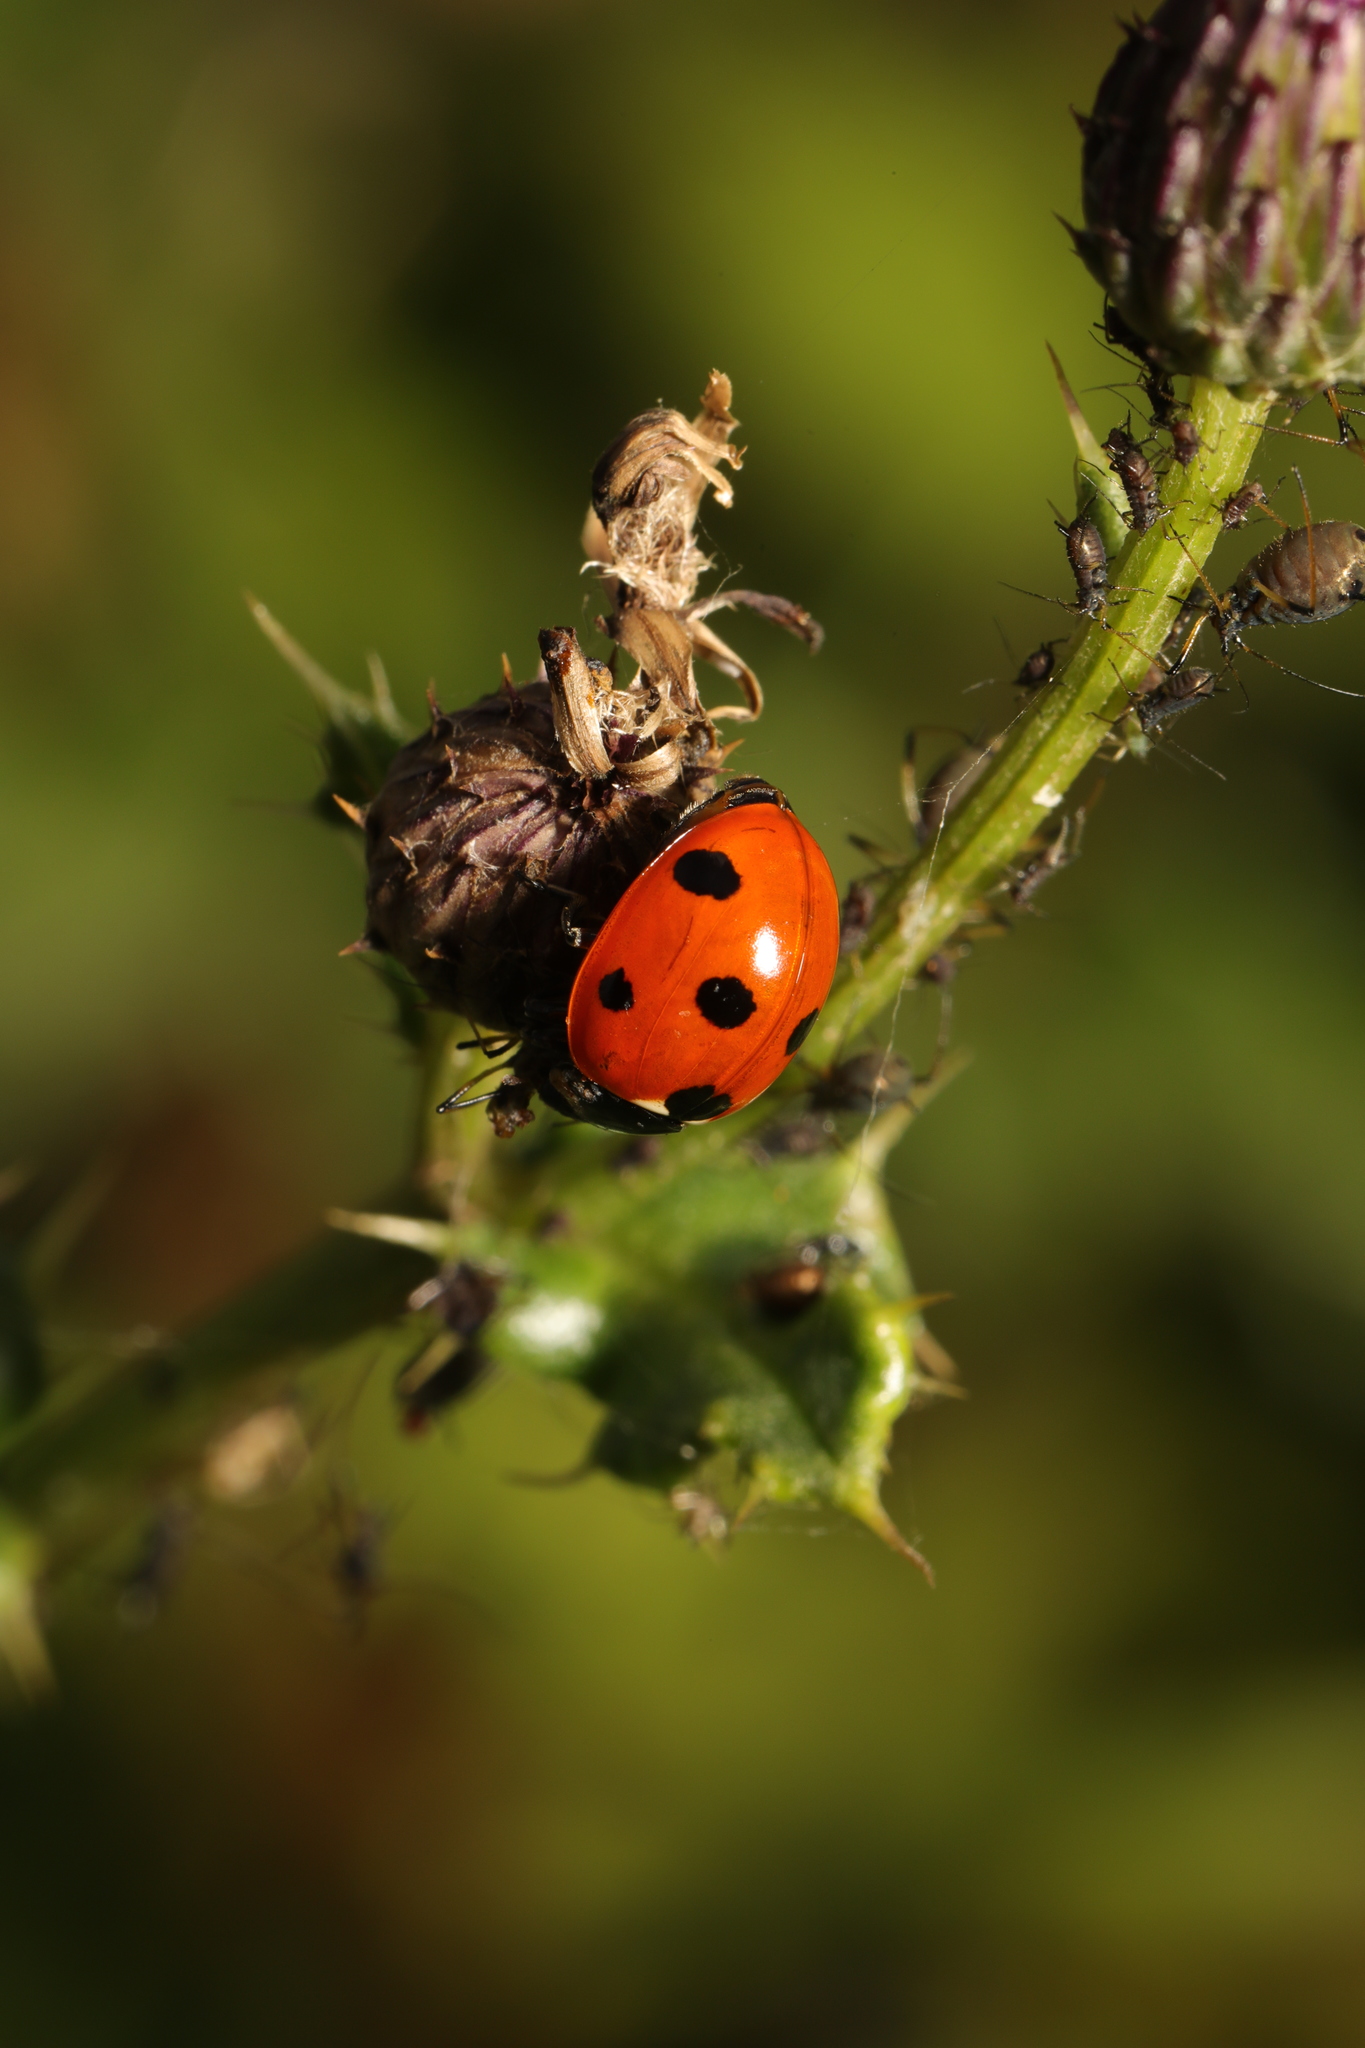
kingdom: Animalia
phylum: Arthropoda
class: Insecta
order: Coleoptera
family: Coccinellidae
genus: Coccinella
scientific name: Coccinella septempunctata
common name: Sevenspotted lady beetle
